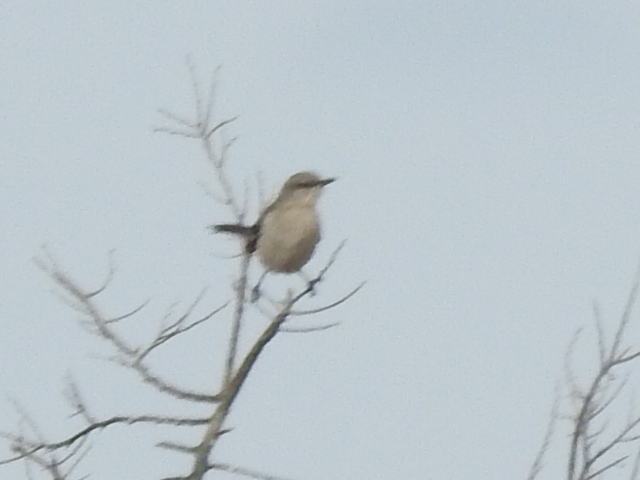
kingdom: Animalia
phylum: Chordata
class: Aves
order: Passeriformes
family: Mimidae
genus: Mimus
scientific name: Mimus polyglottos
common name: Northern mockingbird
